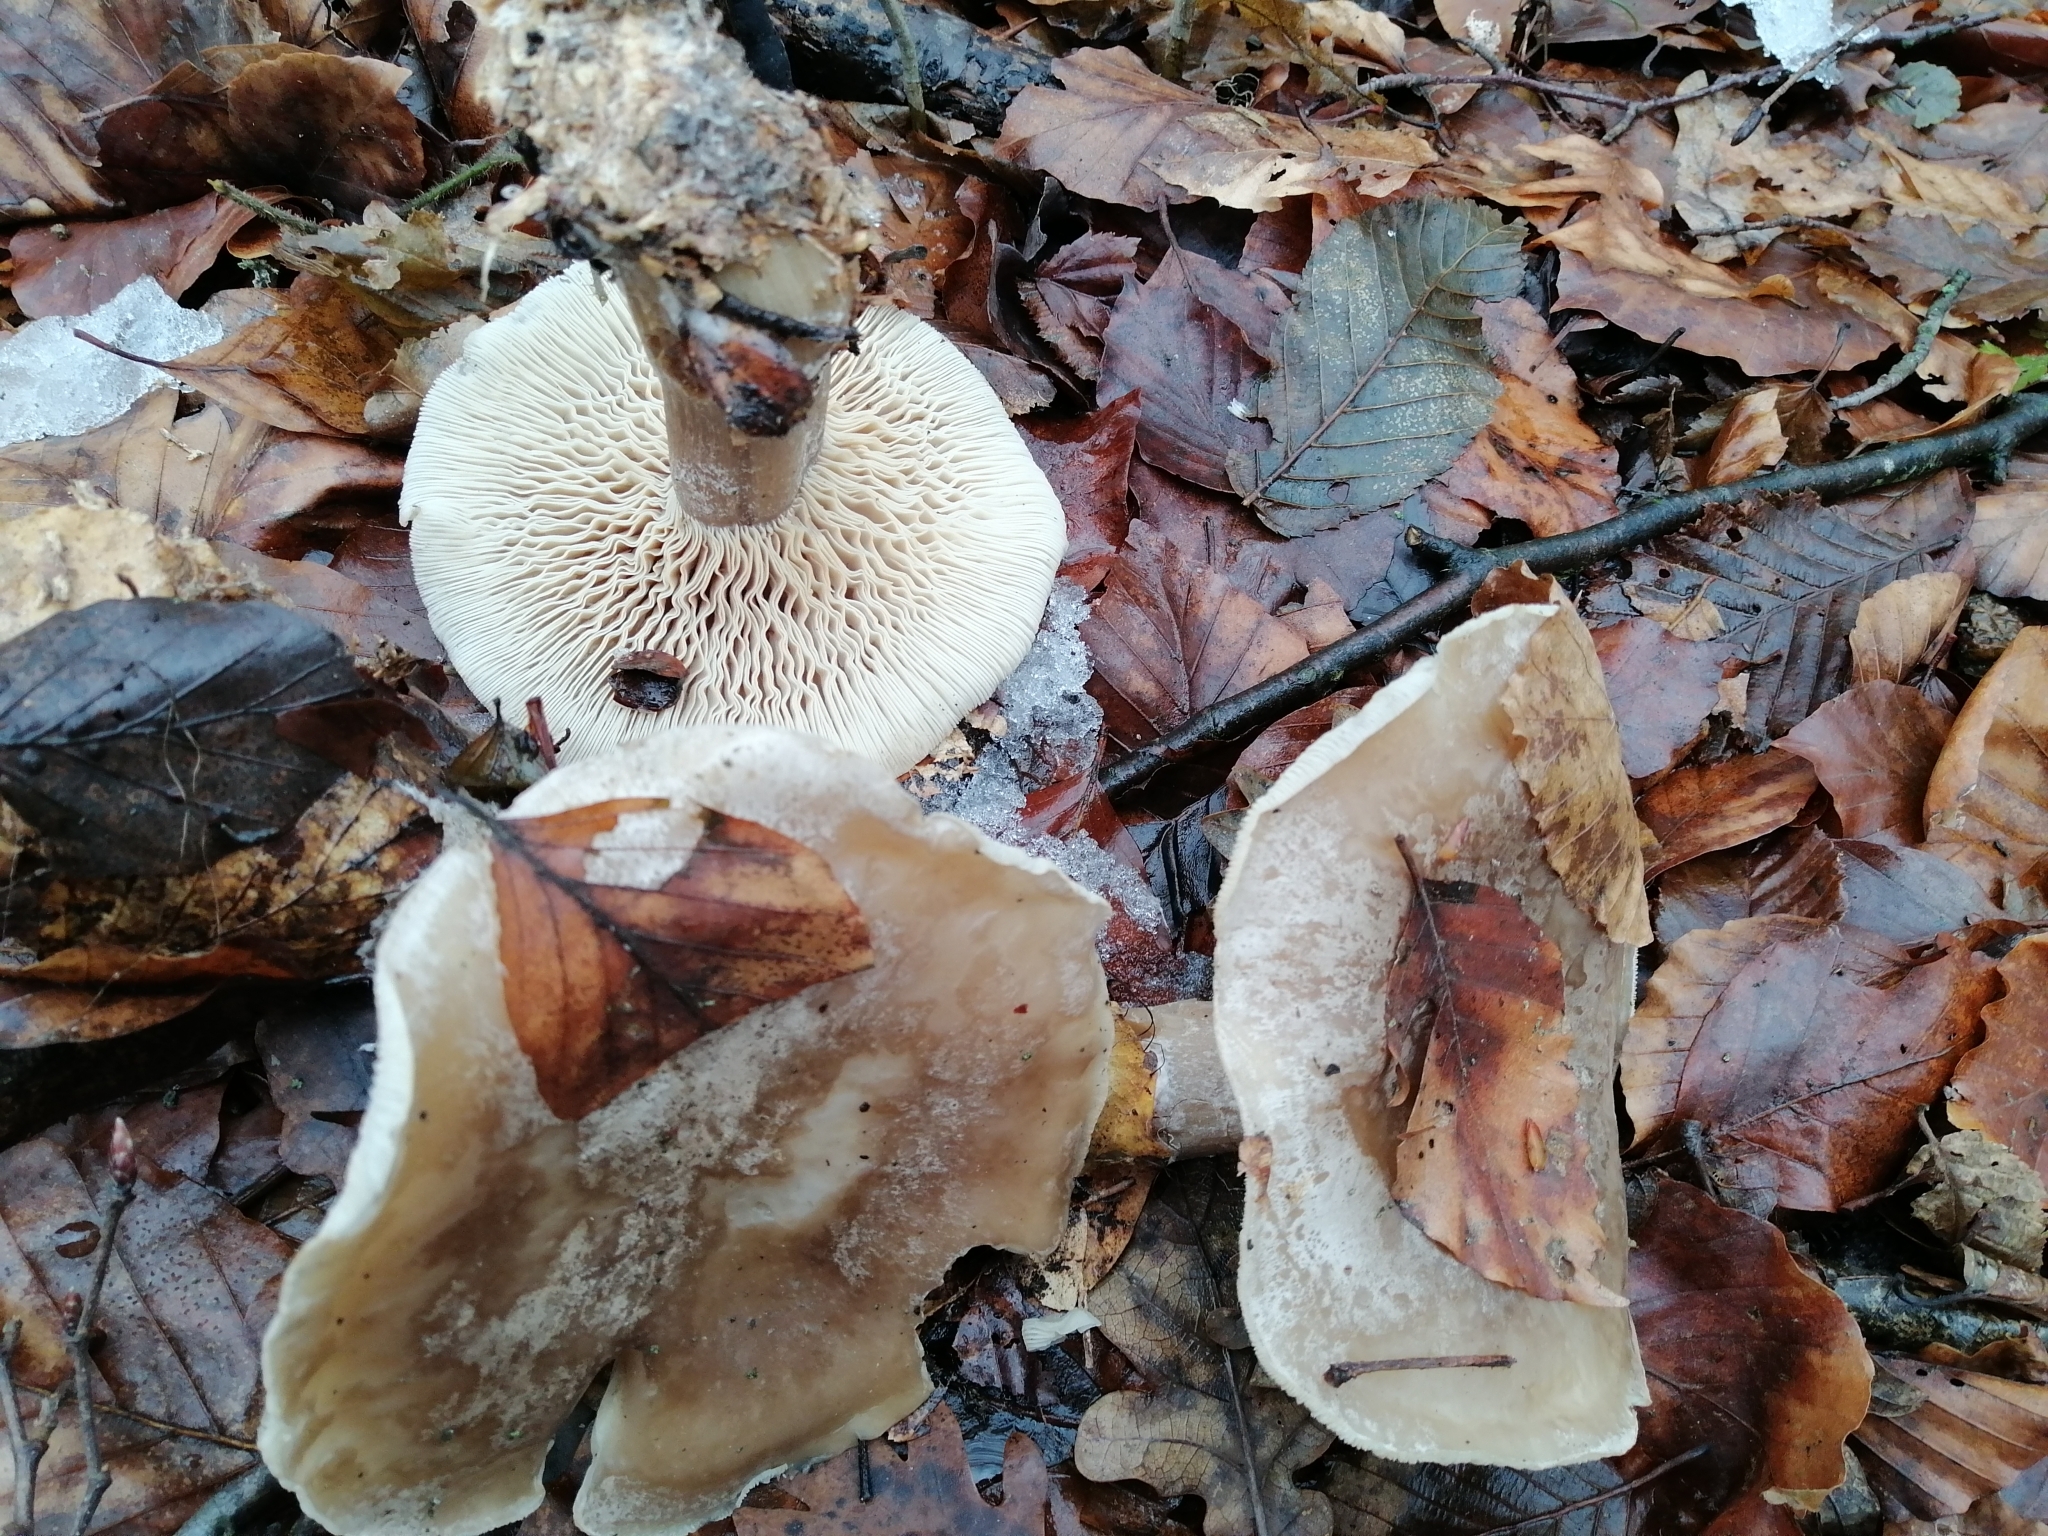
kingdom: Fungi
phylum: Basidiomycota
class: Agaricomycetes
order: Agaricales
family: Tricholomataceae
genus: Clitocybe
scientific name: Clitocybe nebularis
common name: Clouded agaric
